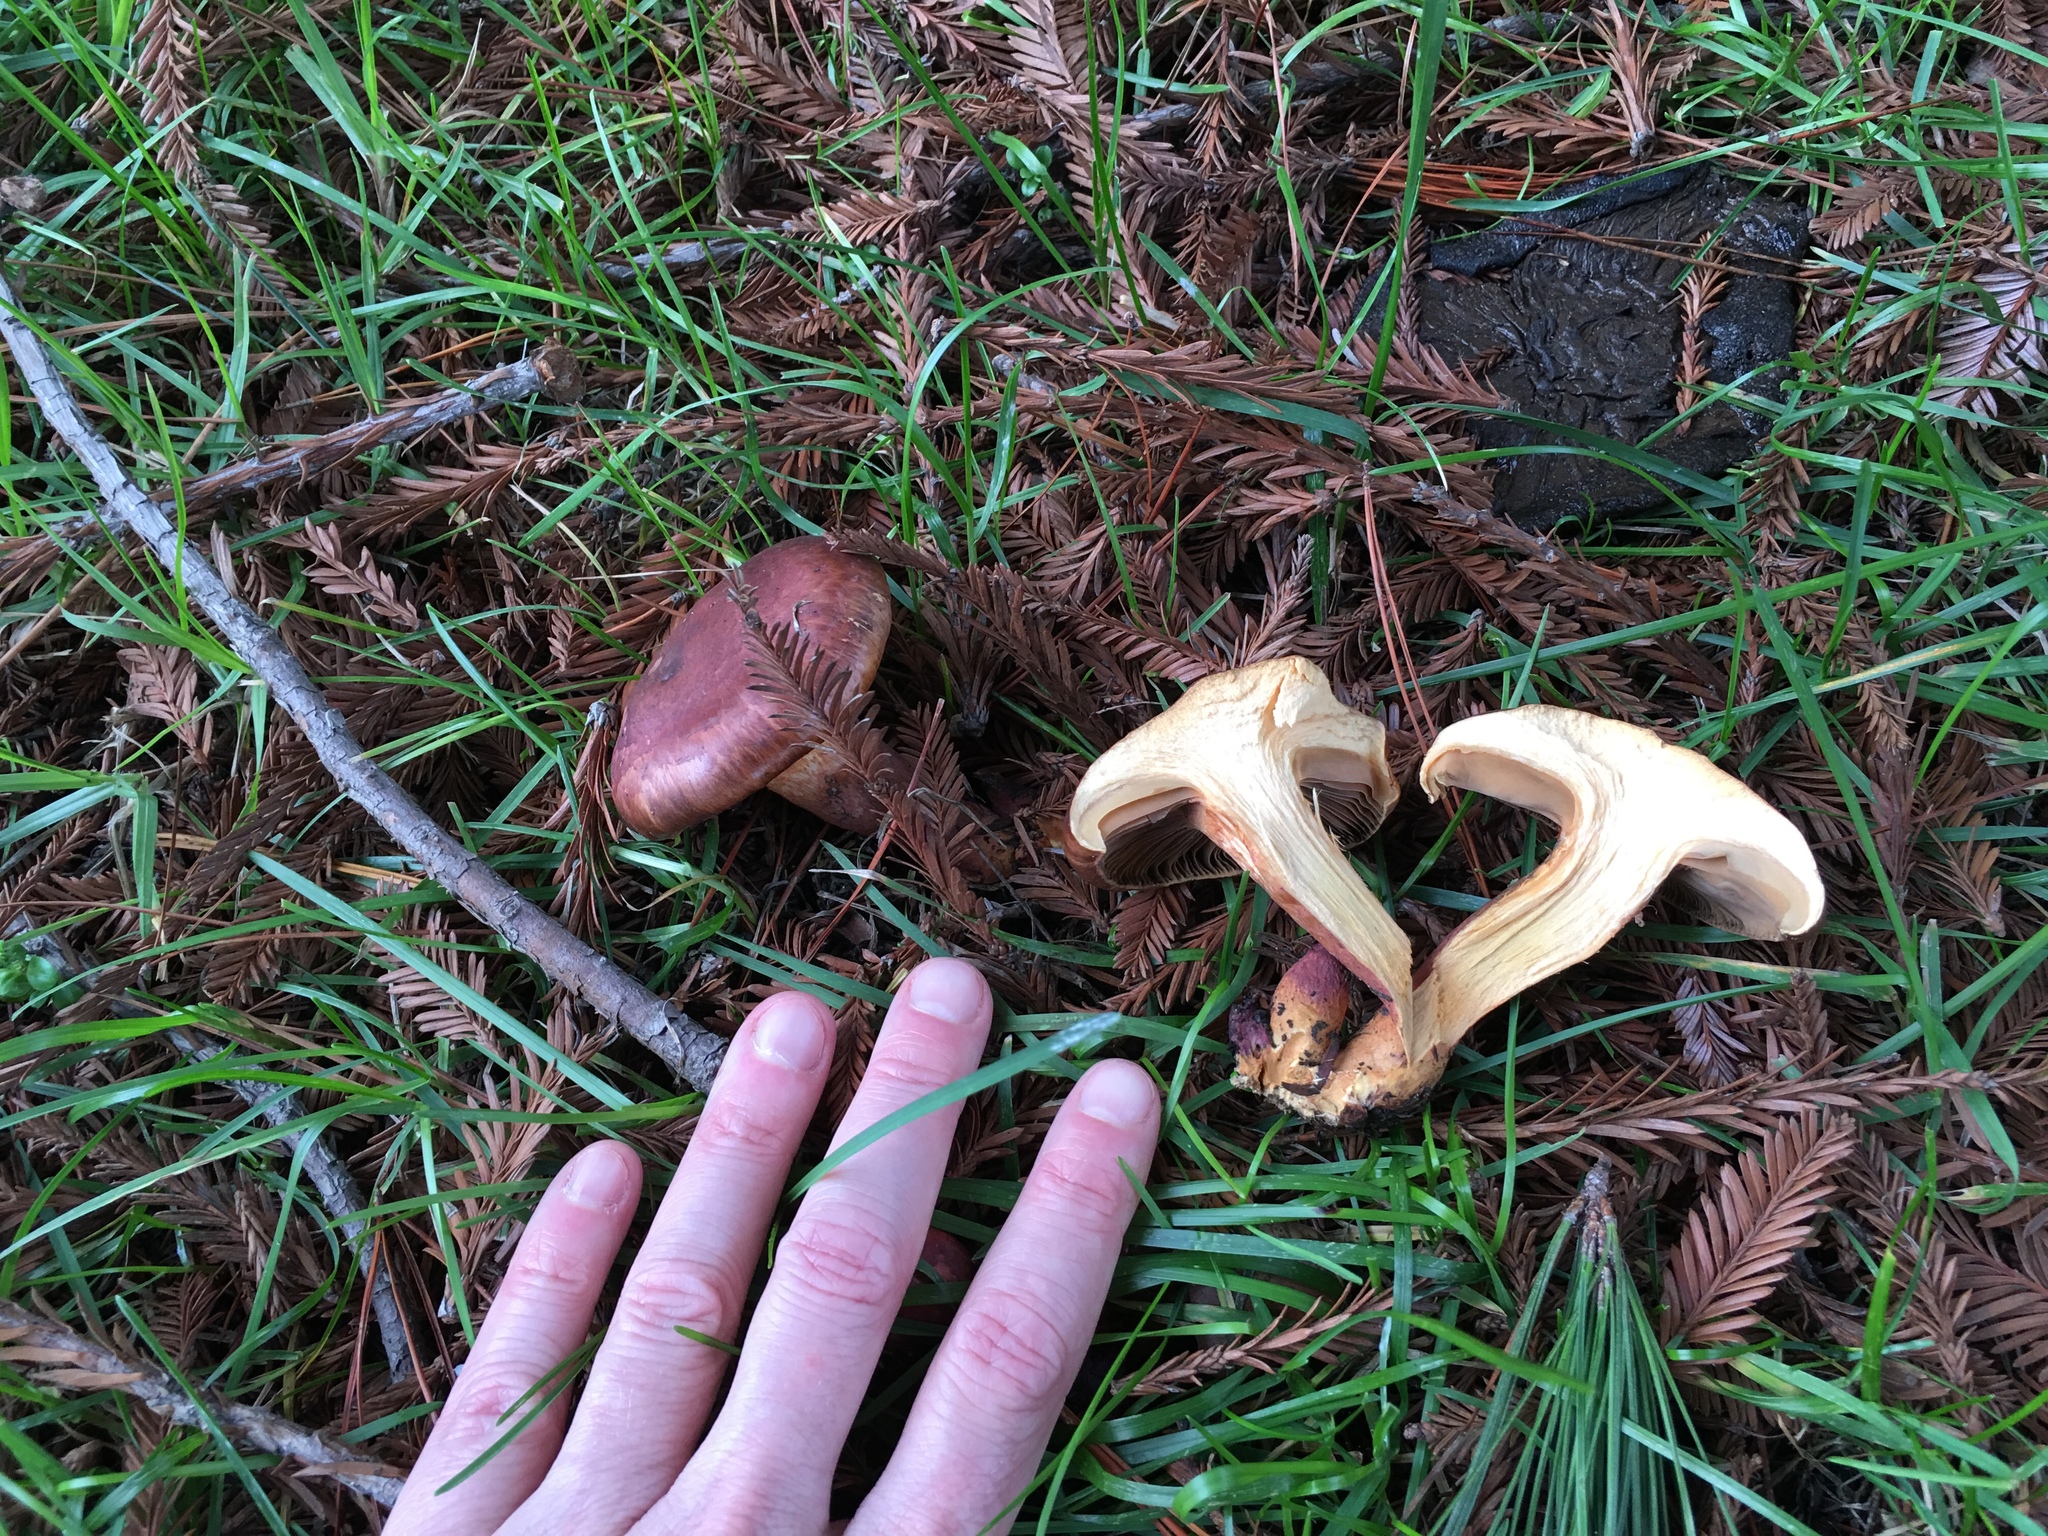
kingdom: Fungi
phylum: Basidiomycota
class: Agaricomycetes
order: Boletales
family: Gomphidiaceae
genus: Chroogomphus
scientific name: Chroogomphus vinicolor
